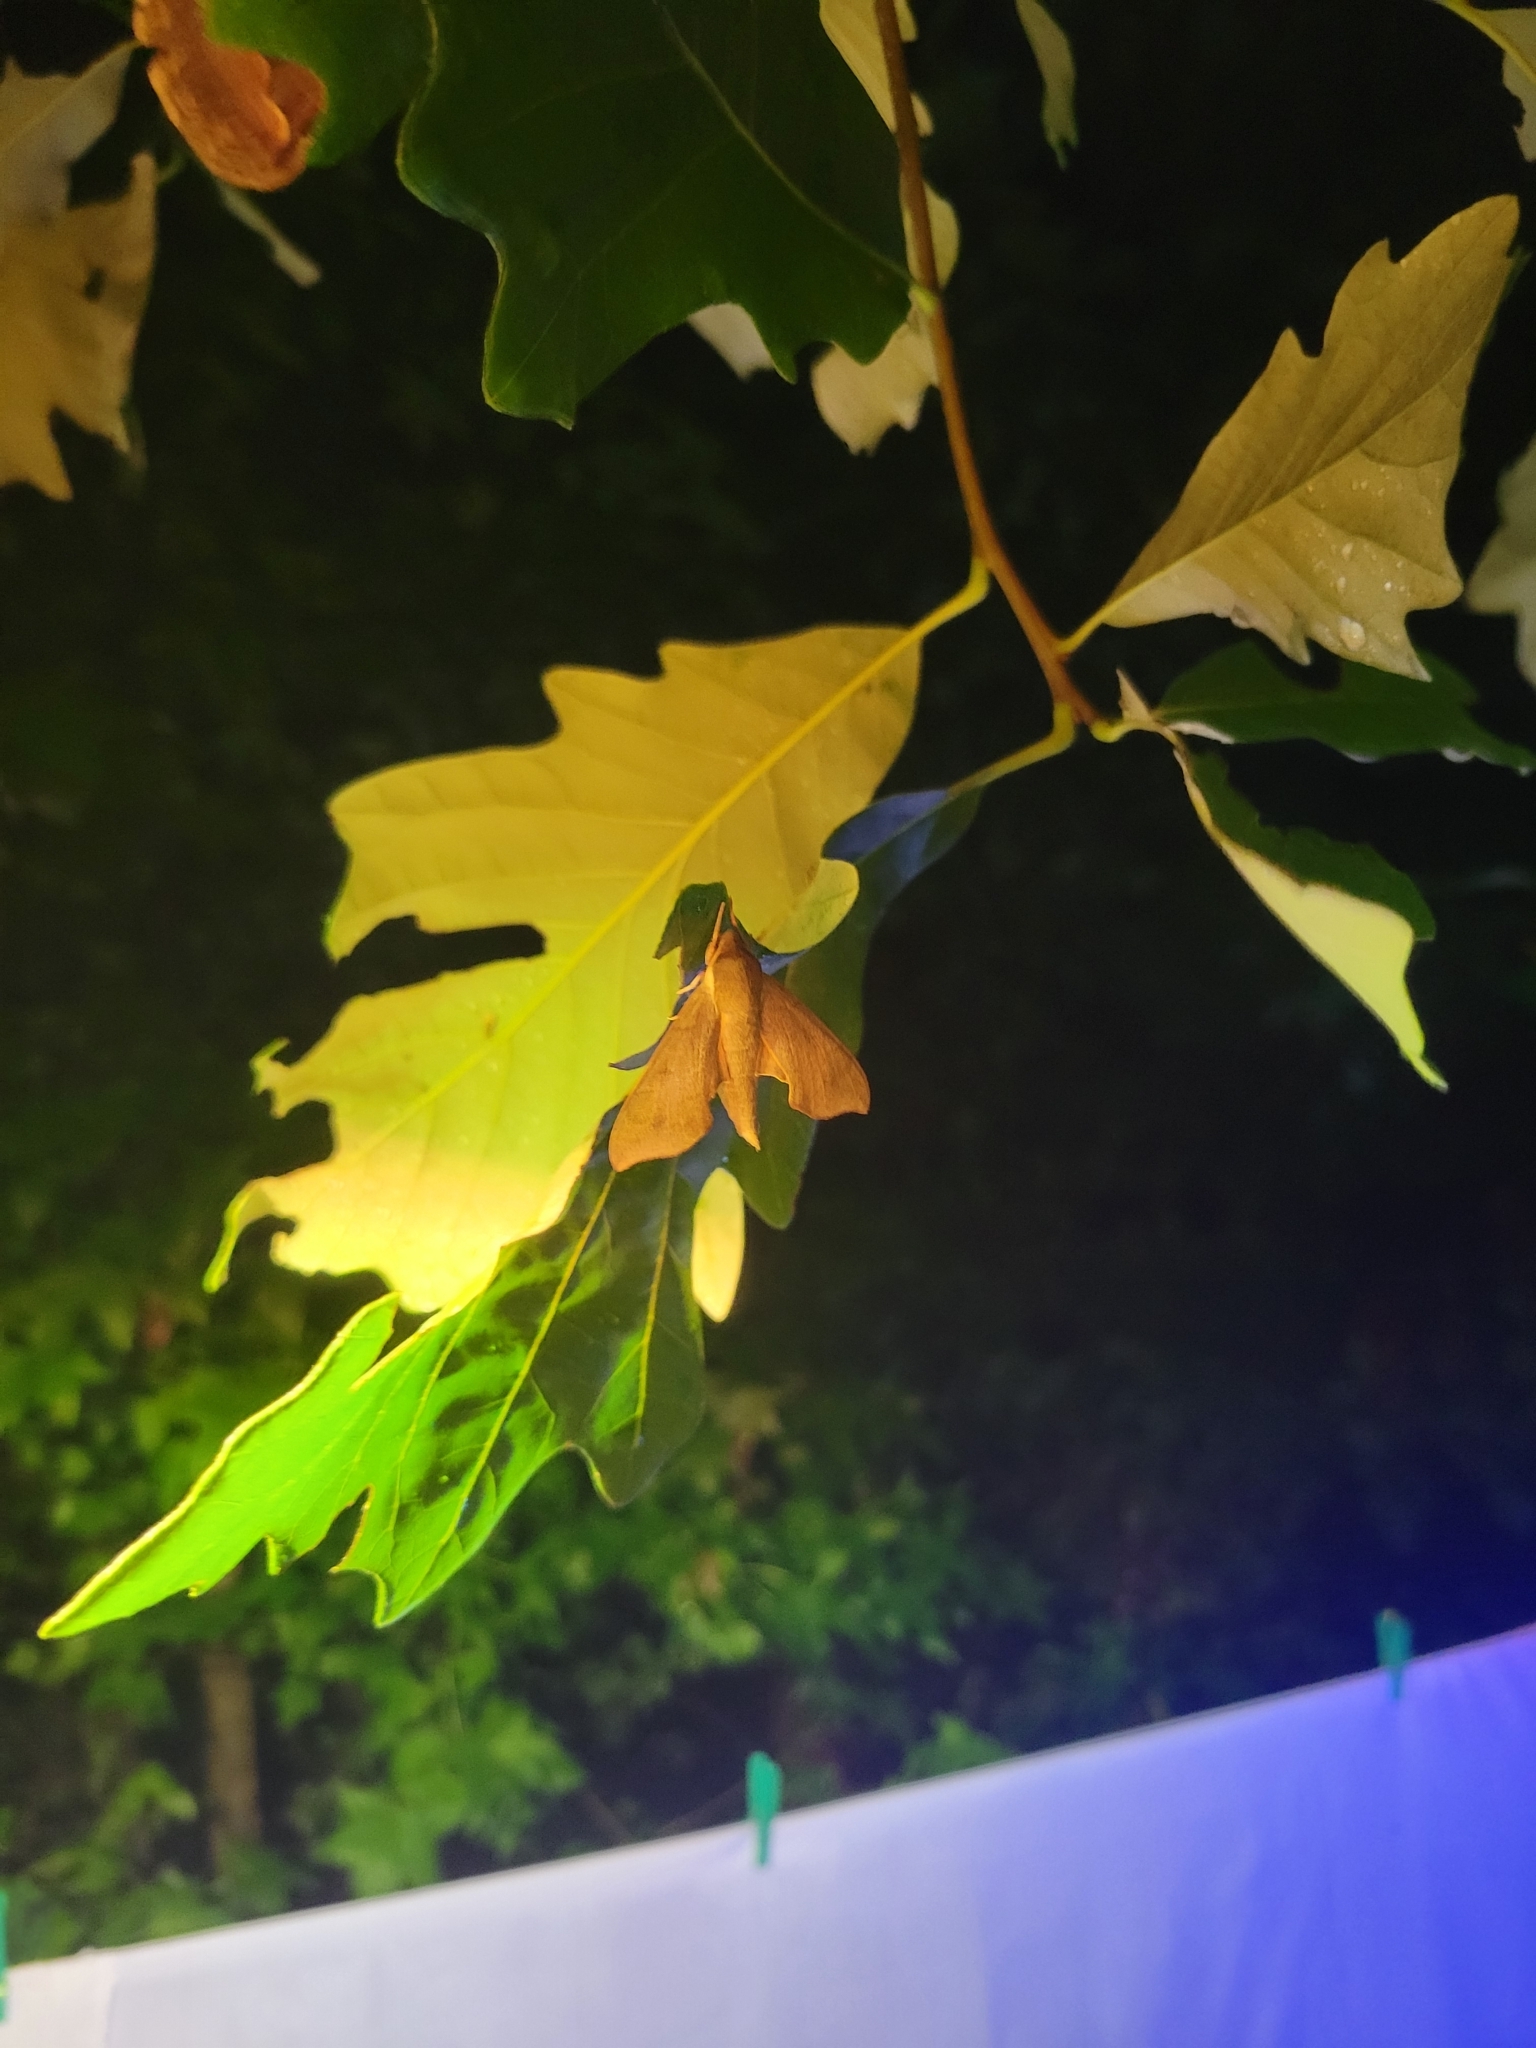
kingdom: Animalia
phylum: Arthropoda
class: Insecta
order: Lepidoptera
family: Sphingidae
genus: Darapsa
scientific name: Darapsa myron
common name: Hog sphinx
